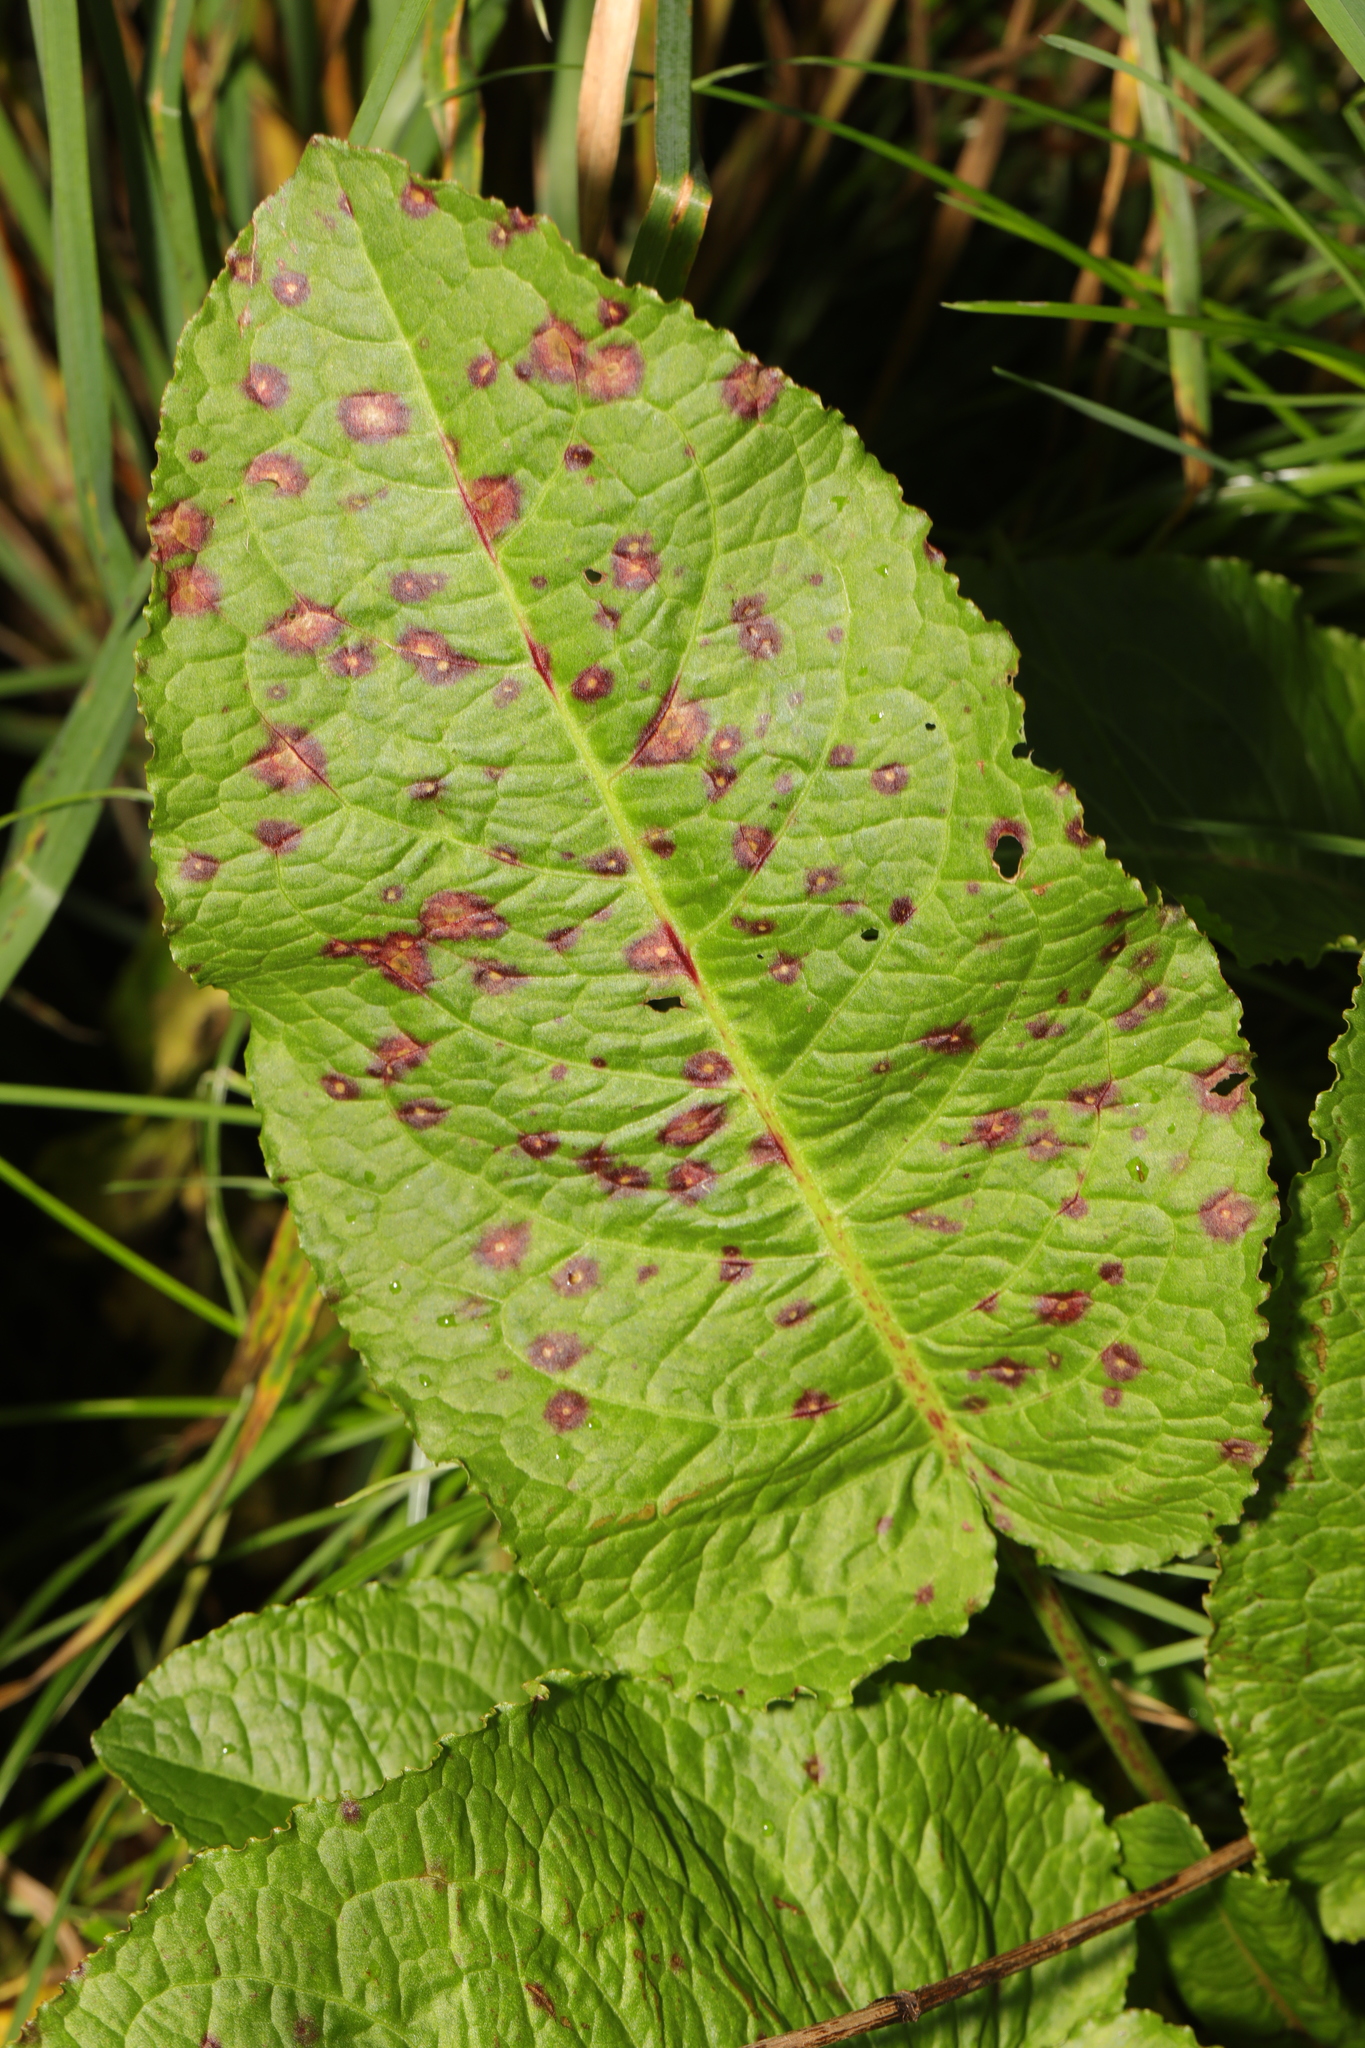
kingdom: Plantae
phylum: Tracheophyta
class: Magnoliopsida
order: Caryophyllales
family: Polygonaceae
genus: Rumex
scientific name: Rumex obtusifolius
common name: Bitter dock
